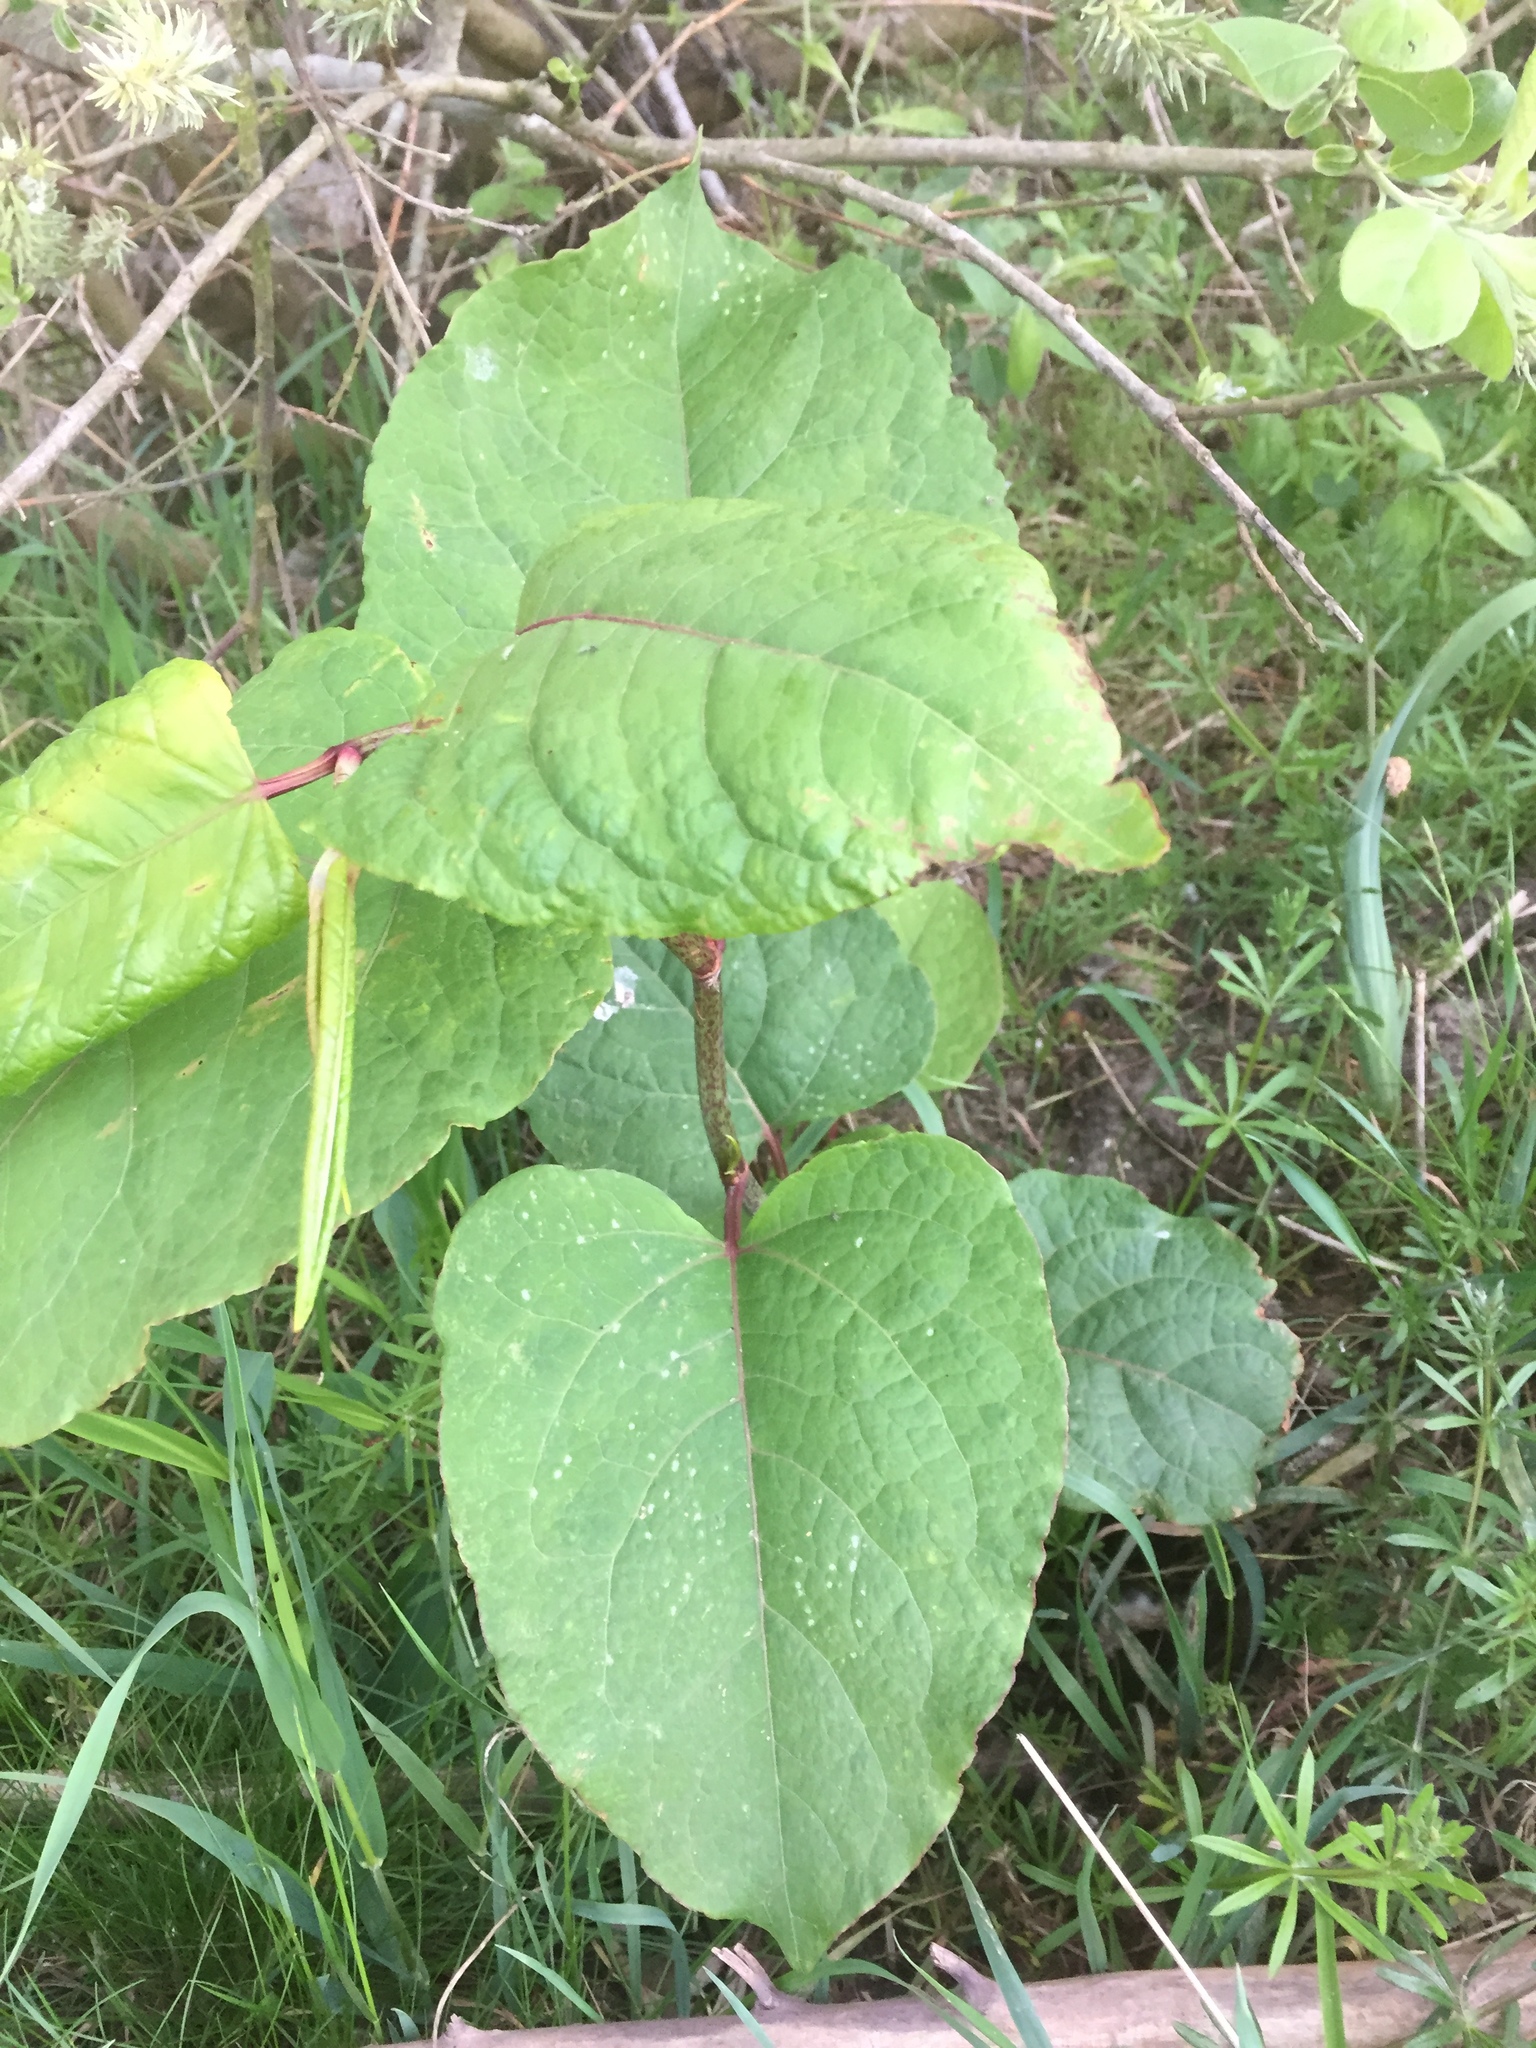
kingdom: Plantae
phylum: Tracheophyta
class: Magnoliopsida
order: Caryophyllales
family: Polygonaceae
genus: Reynoutria
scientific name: Reynoutria japonica
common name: Japanese knotweed
